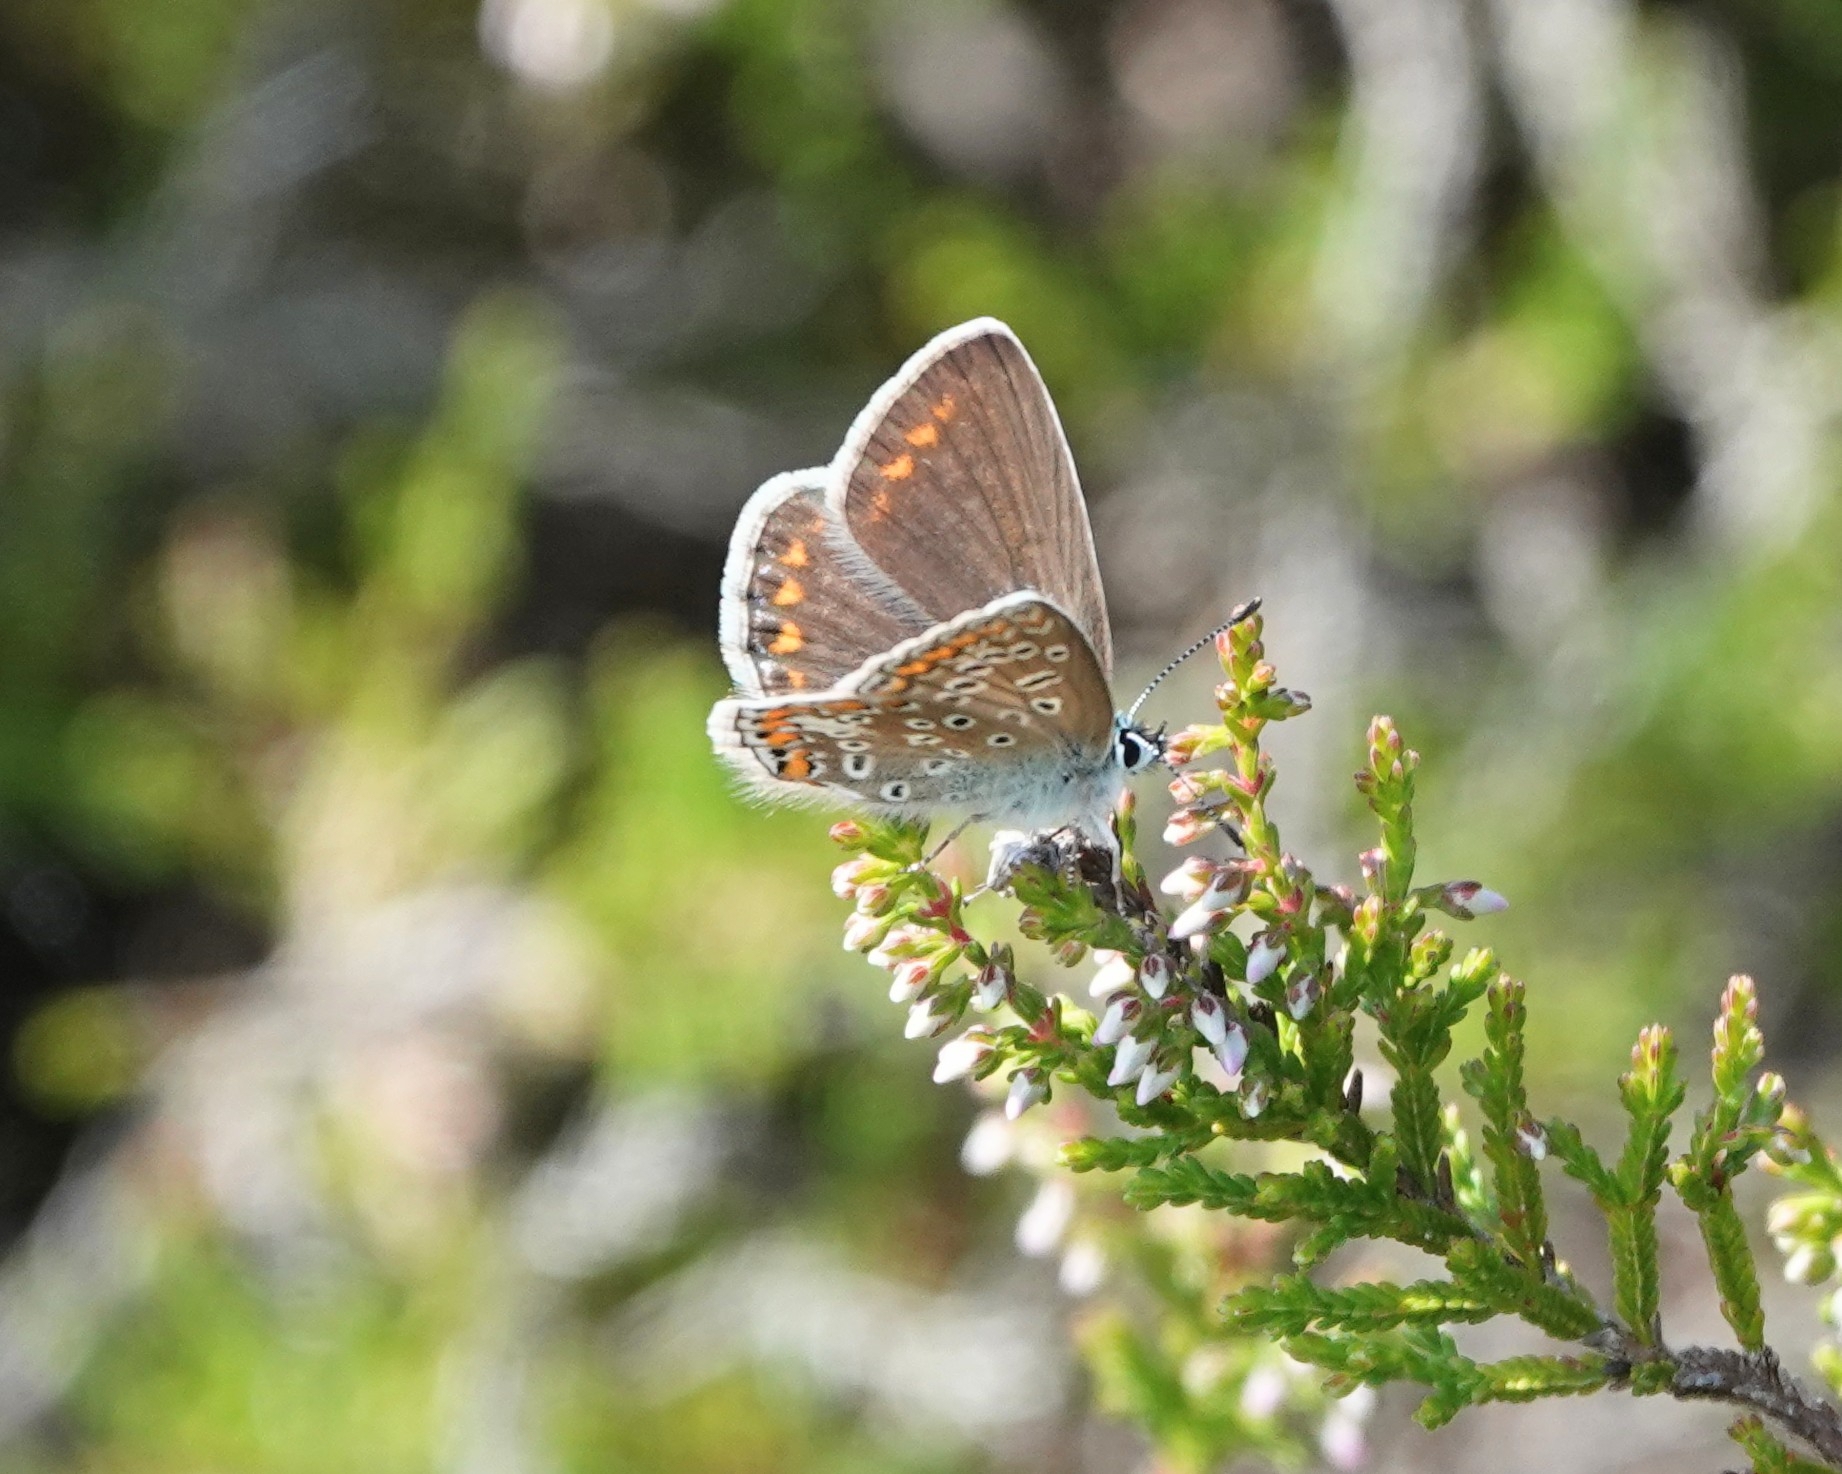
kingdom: Animalia
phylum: Arthropoda
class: Insecta
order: Lepidoptera
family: Lycaenidae
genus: Polyommatus
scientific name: Polyommatus icarus
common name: Common blue
